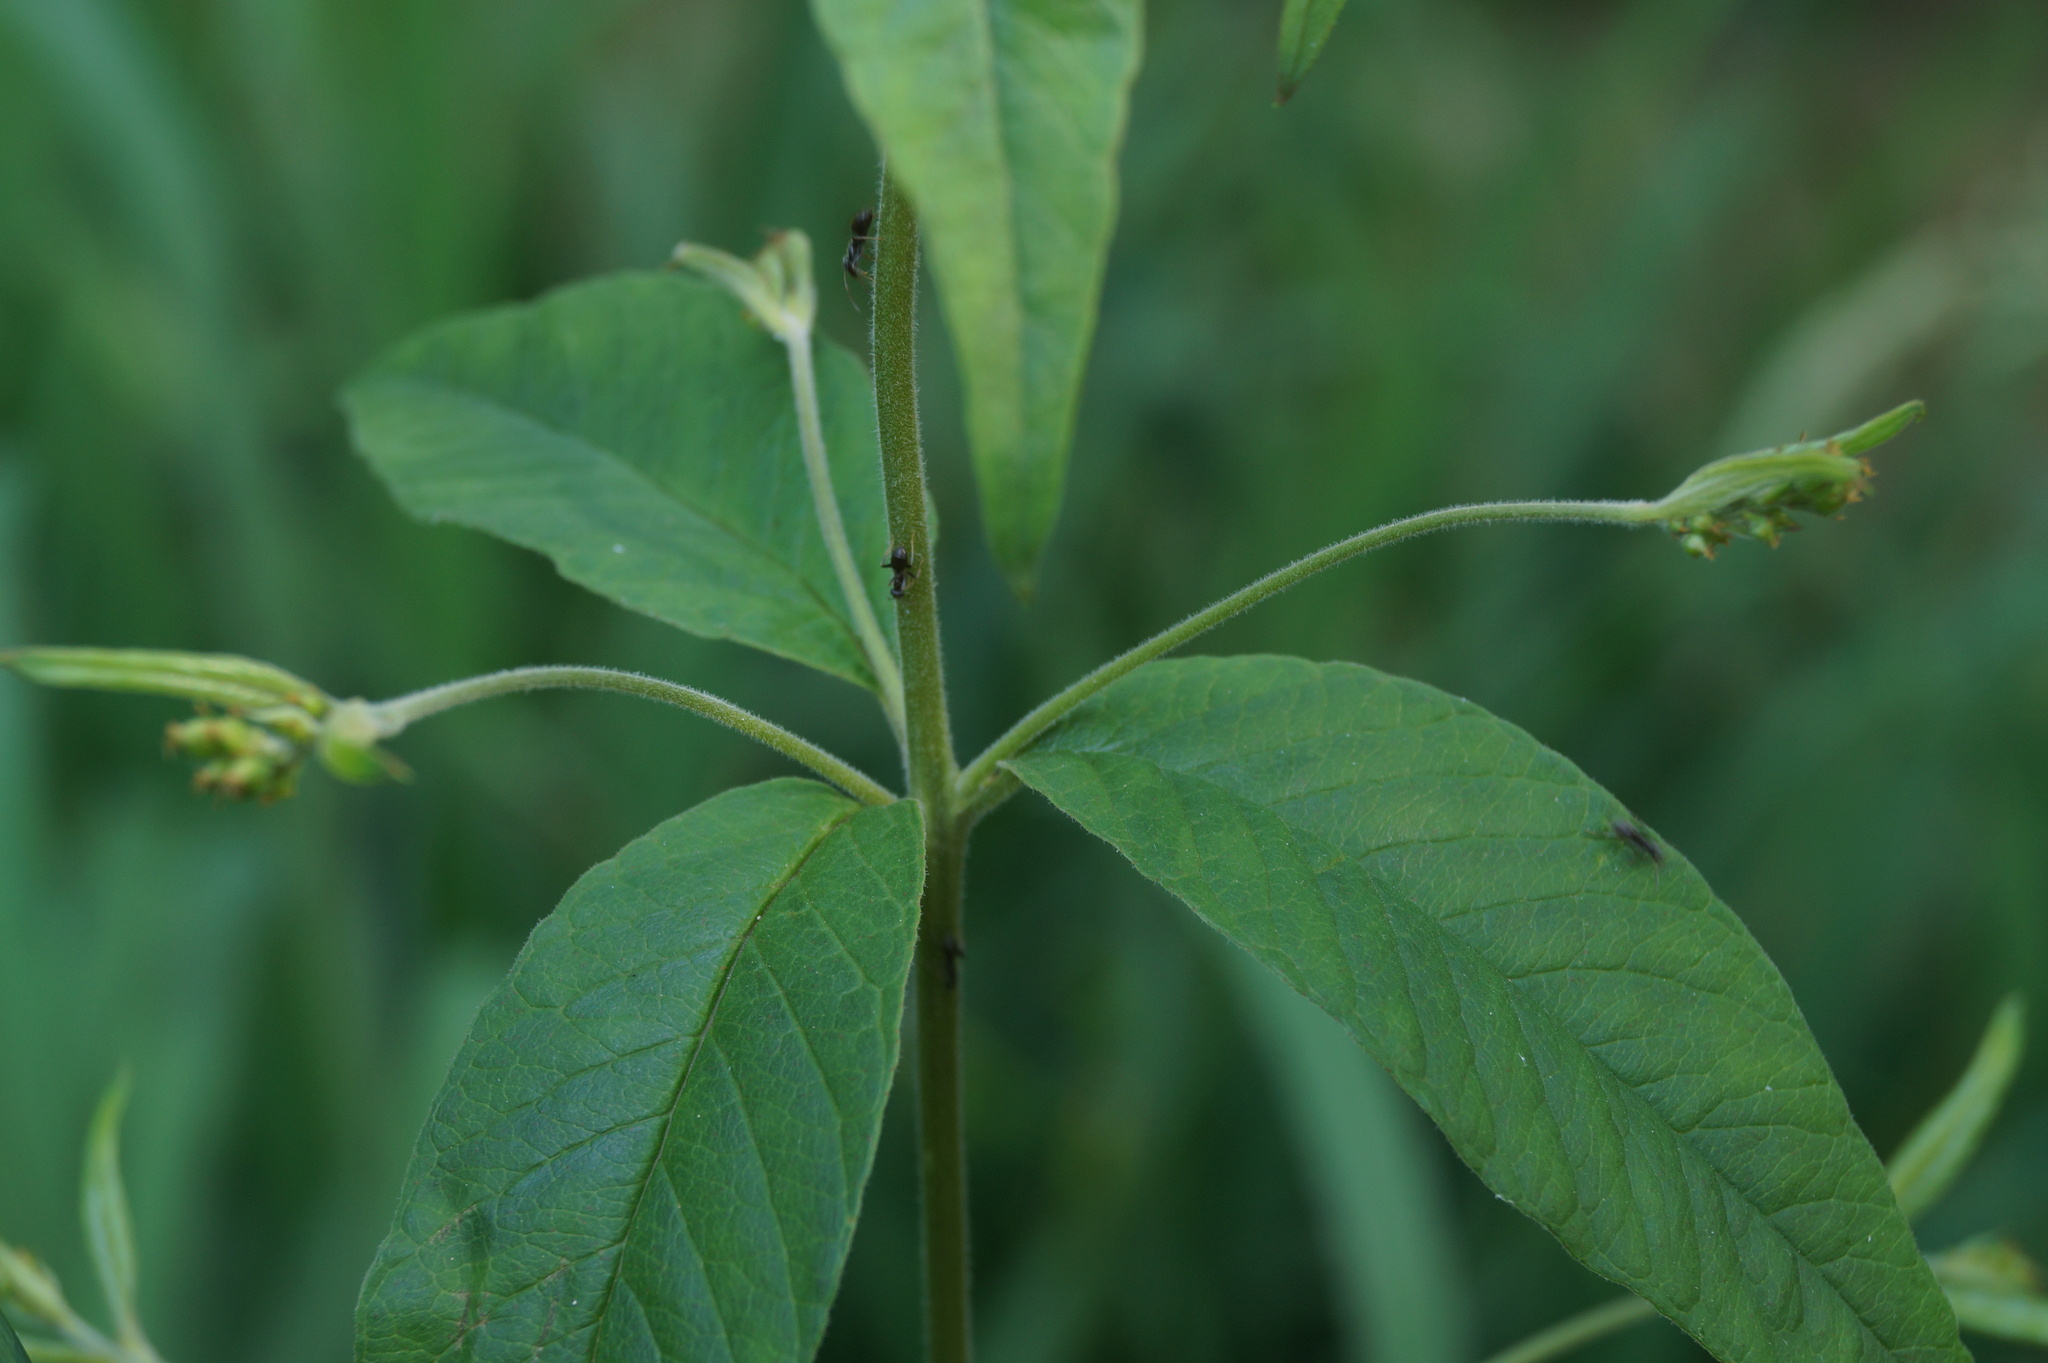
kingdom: Plantae
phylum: Tracheophyta
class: Magnoliopsida
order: Ericales
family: Primulaceae
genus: Lysimachia
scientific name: Lysimachia vulgaris
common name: Yellow loosestrife
